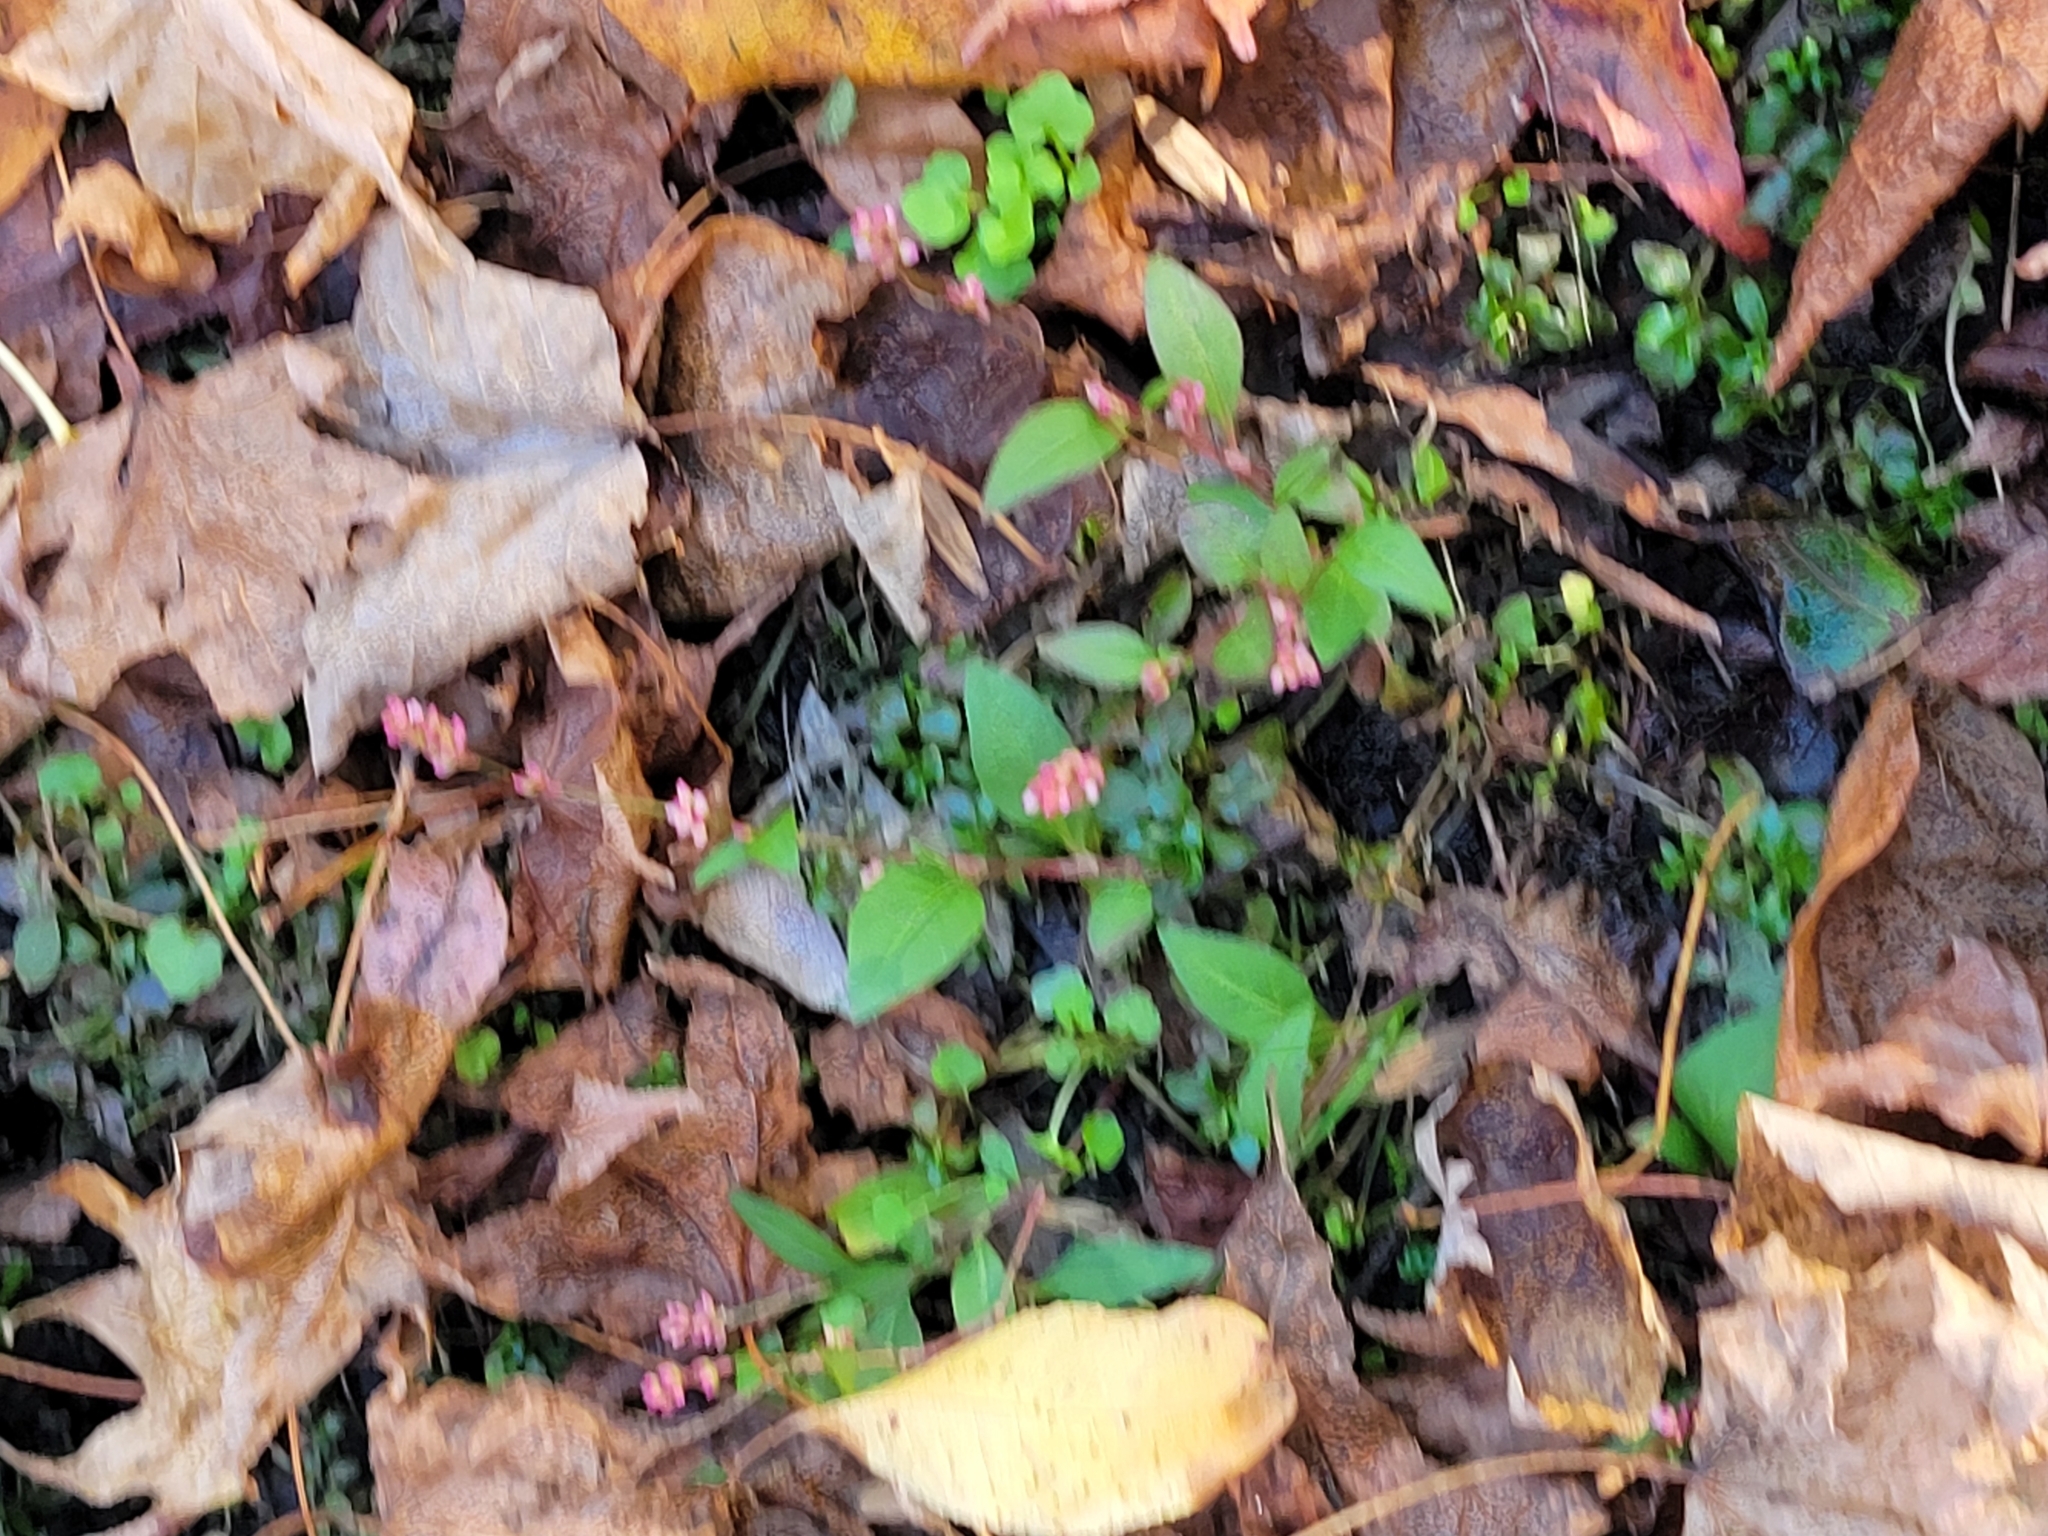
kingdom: Plantae
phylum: Tracheophyta
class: Magnoliopsida
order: Caryophyllales
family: Polygonaceae
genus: Persicaria
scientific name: Persicaria maculosa
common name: Redshank
